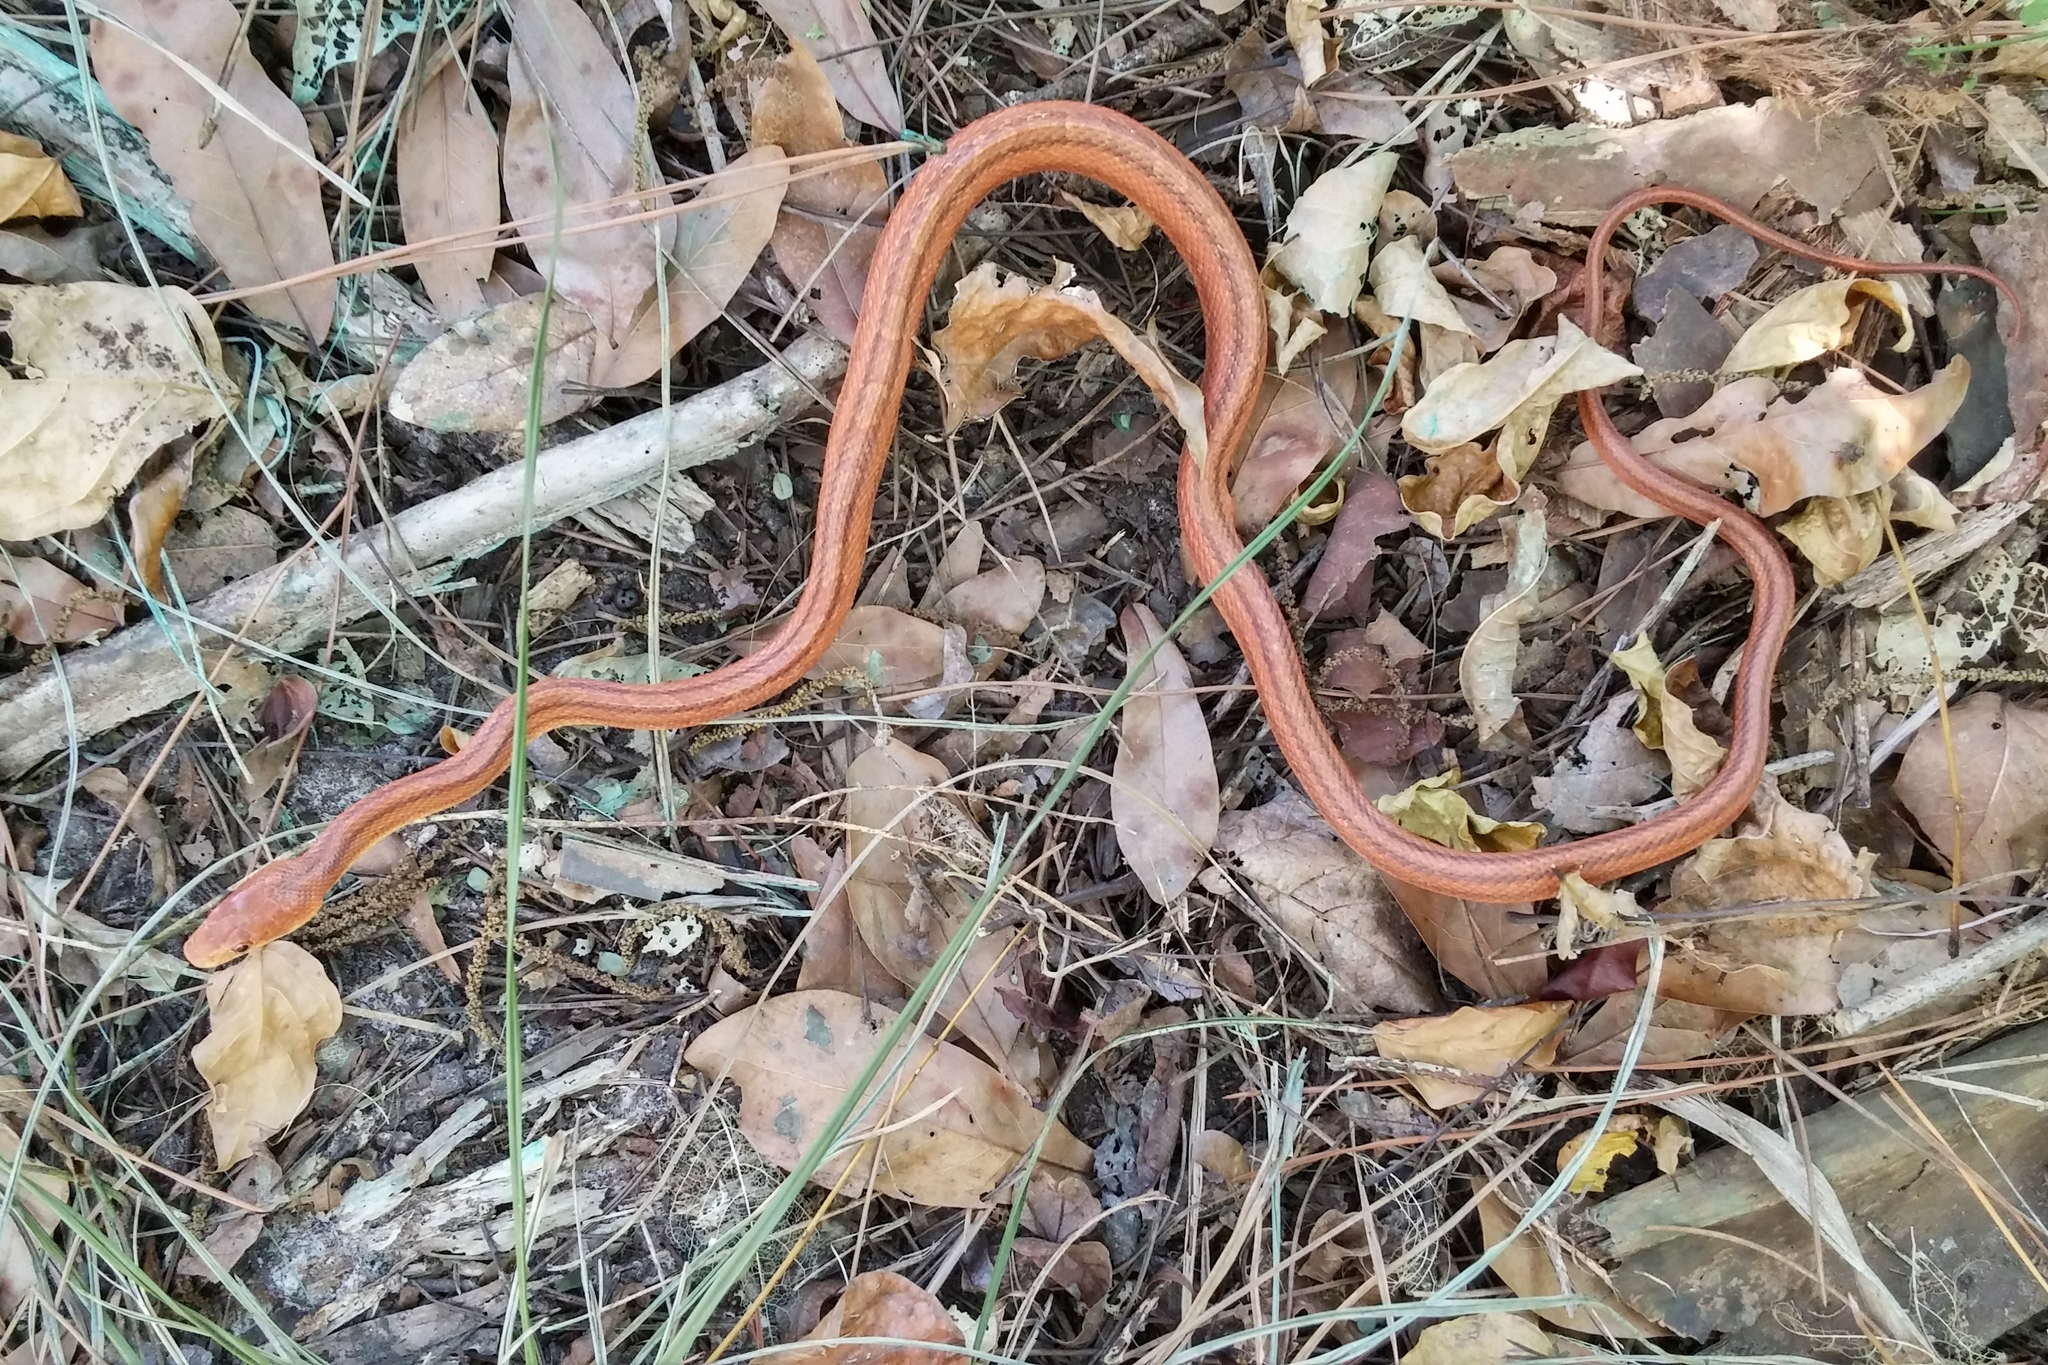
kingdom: Animalia
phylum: Chordata
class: Squamata
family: Colubridae
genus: Pantherophis
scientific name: Pantherophis alleghaniensis
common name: Eastern rat snake
